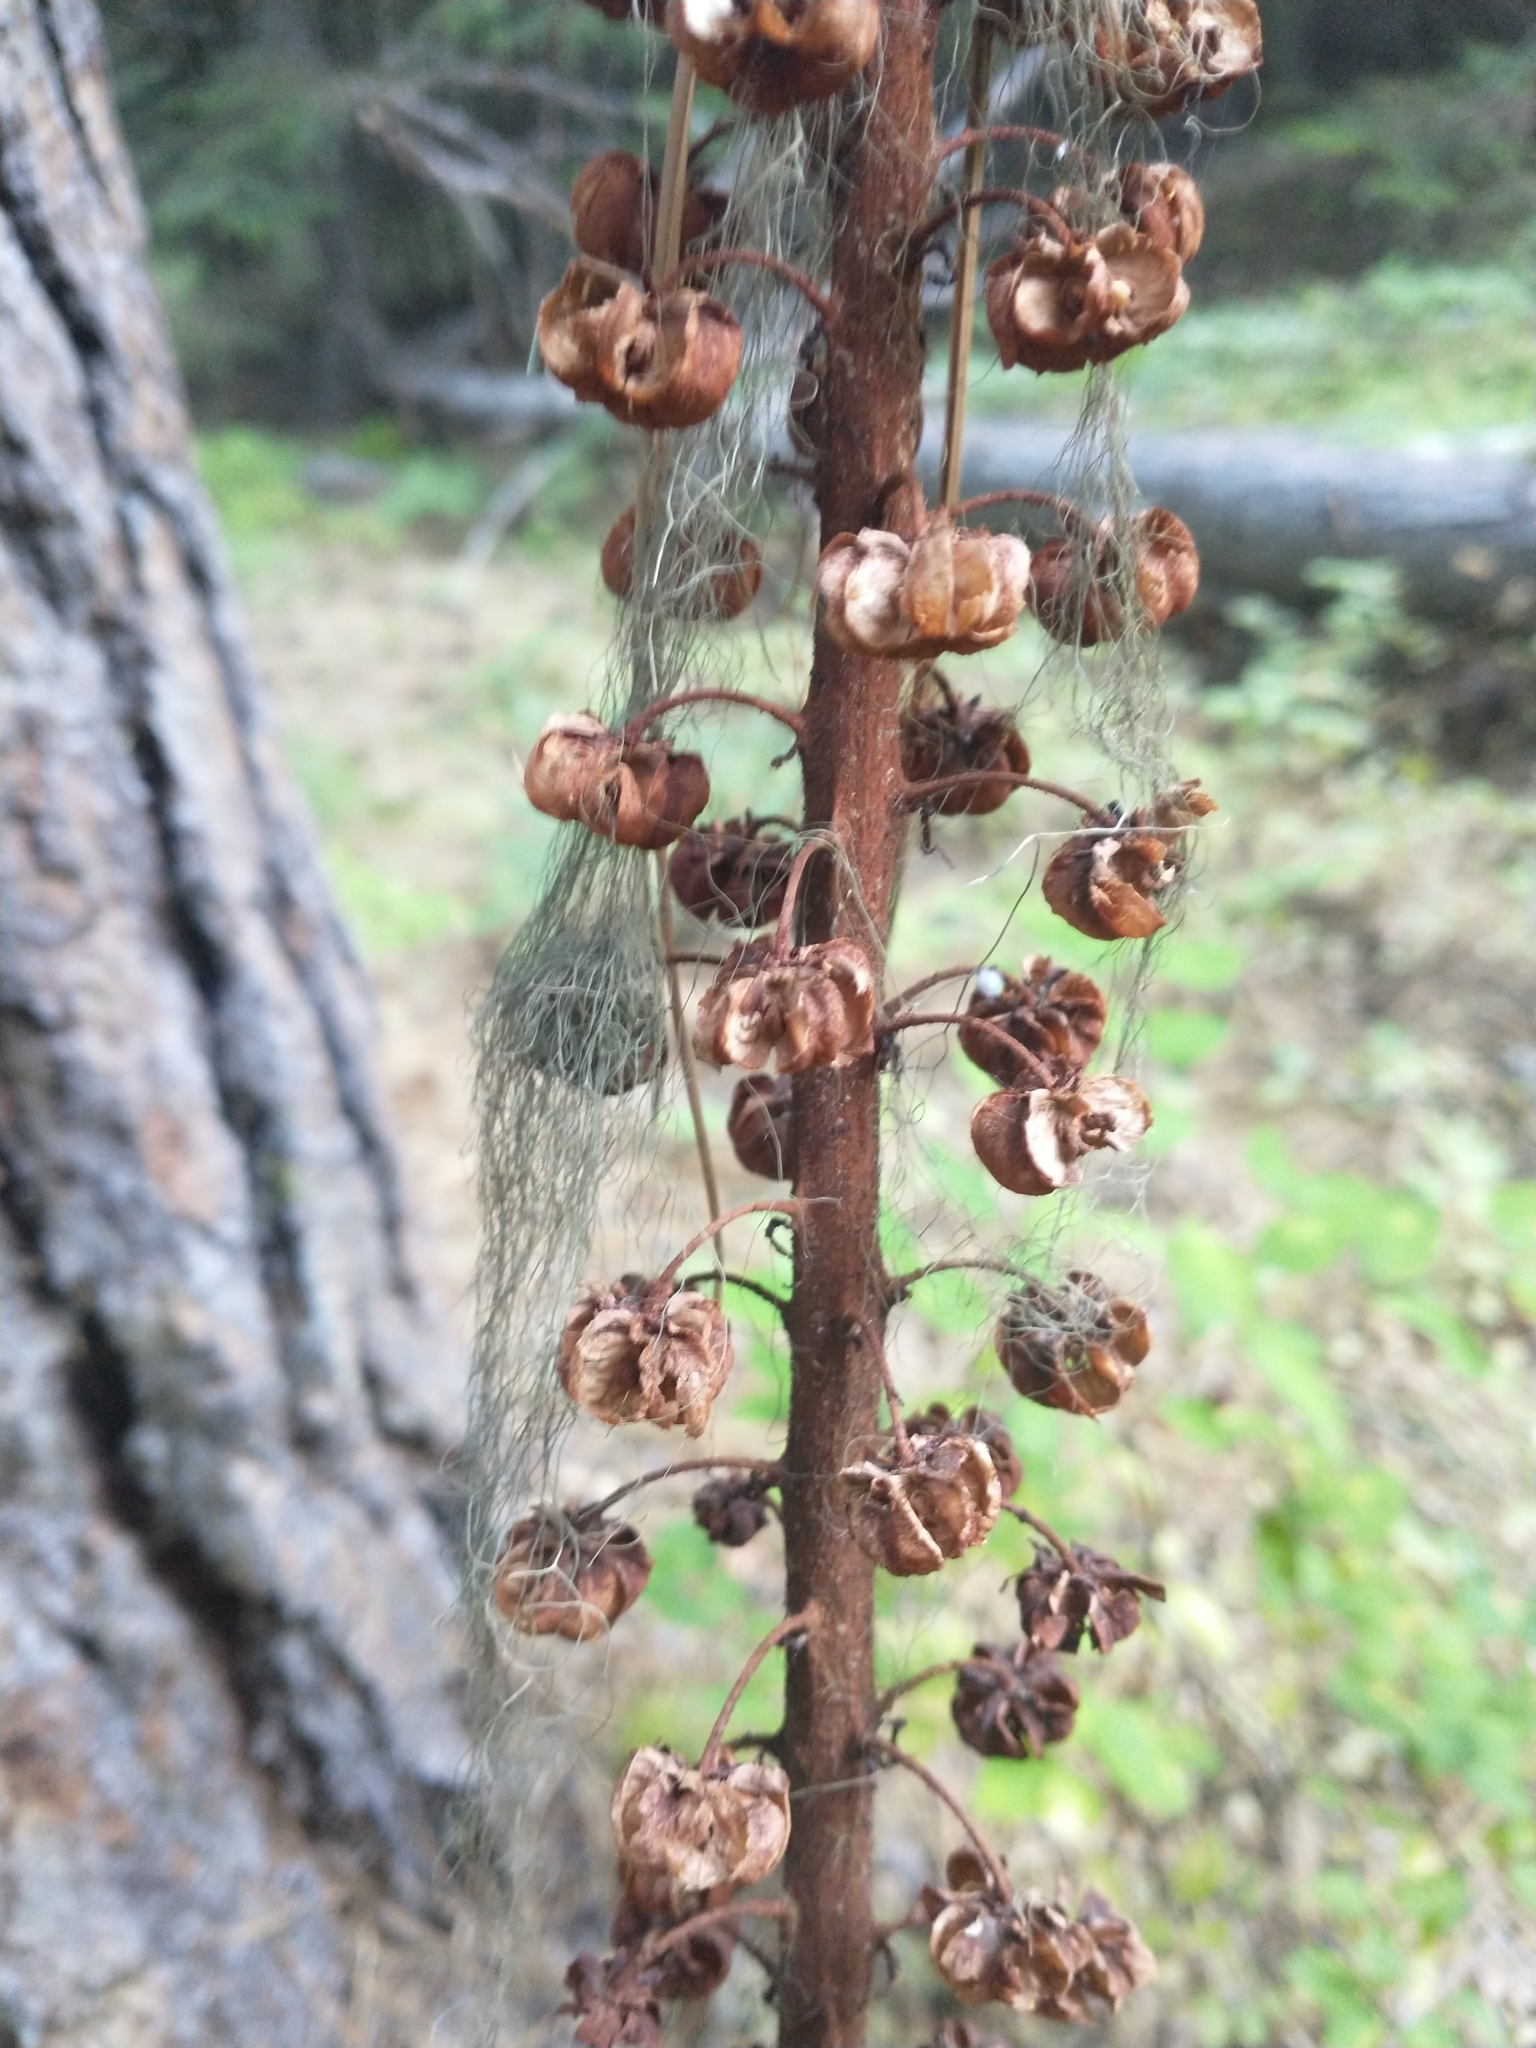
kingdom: Plantae
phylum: Tracheophyta
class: Magnoliopsida
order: Ericales
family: Ericaceae
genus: Pterospora
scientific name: Pterospora andromedea
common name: Giant bird's-nest
